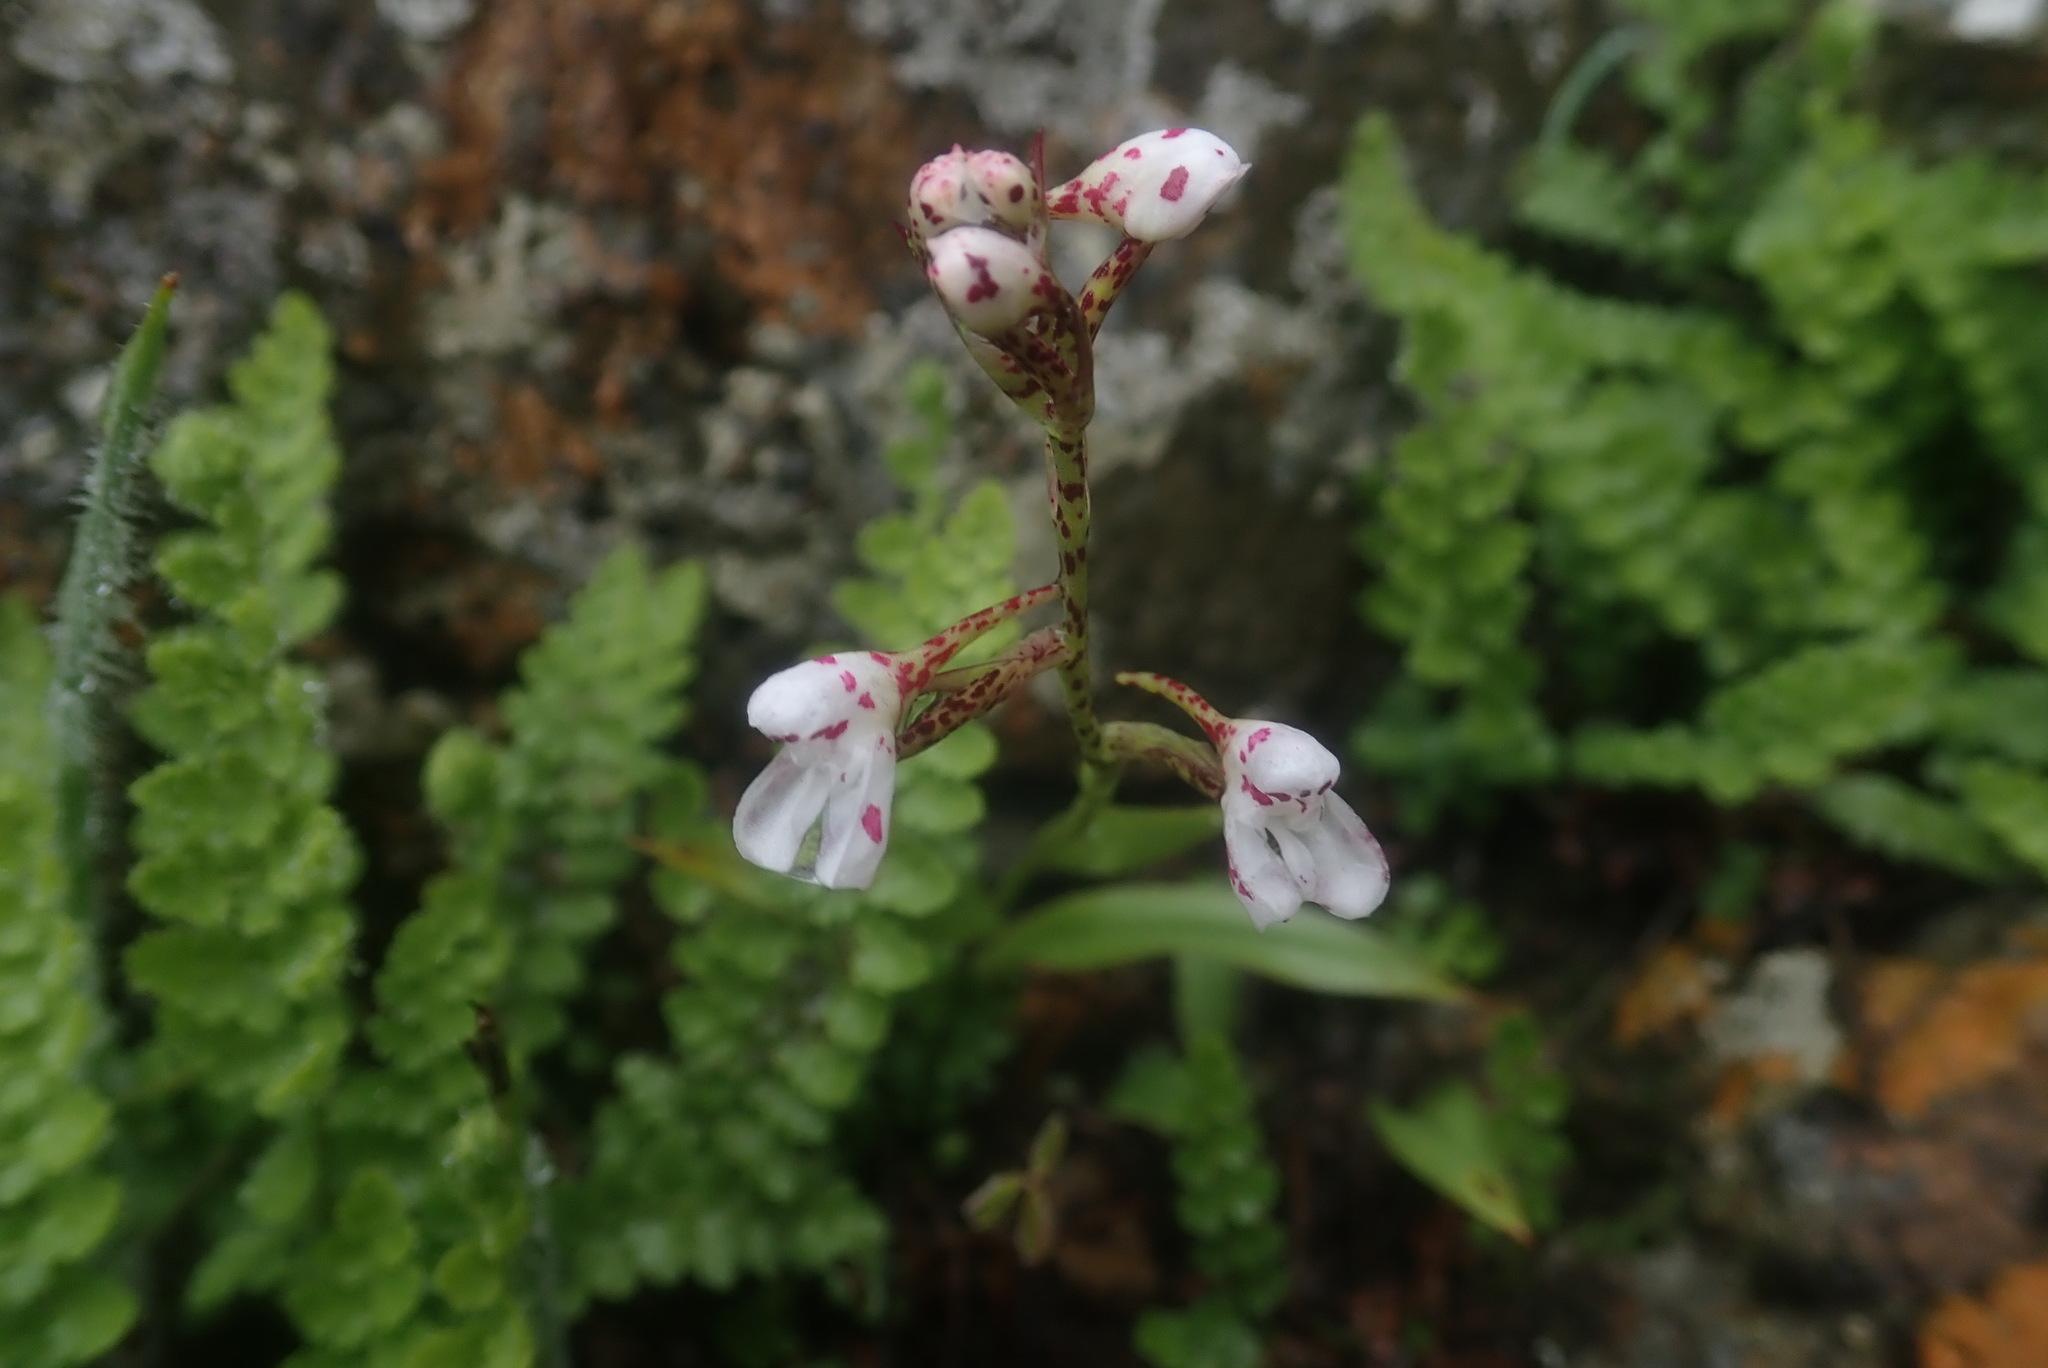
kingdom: Plantae
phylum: Tracheophyta
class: Liliopsida
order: Asparagales
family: Orchidaceae
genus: Disa
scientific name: Disa saxicola
